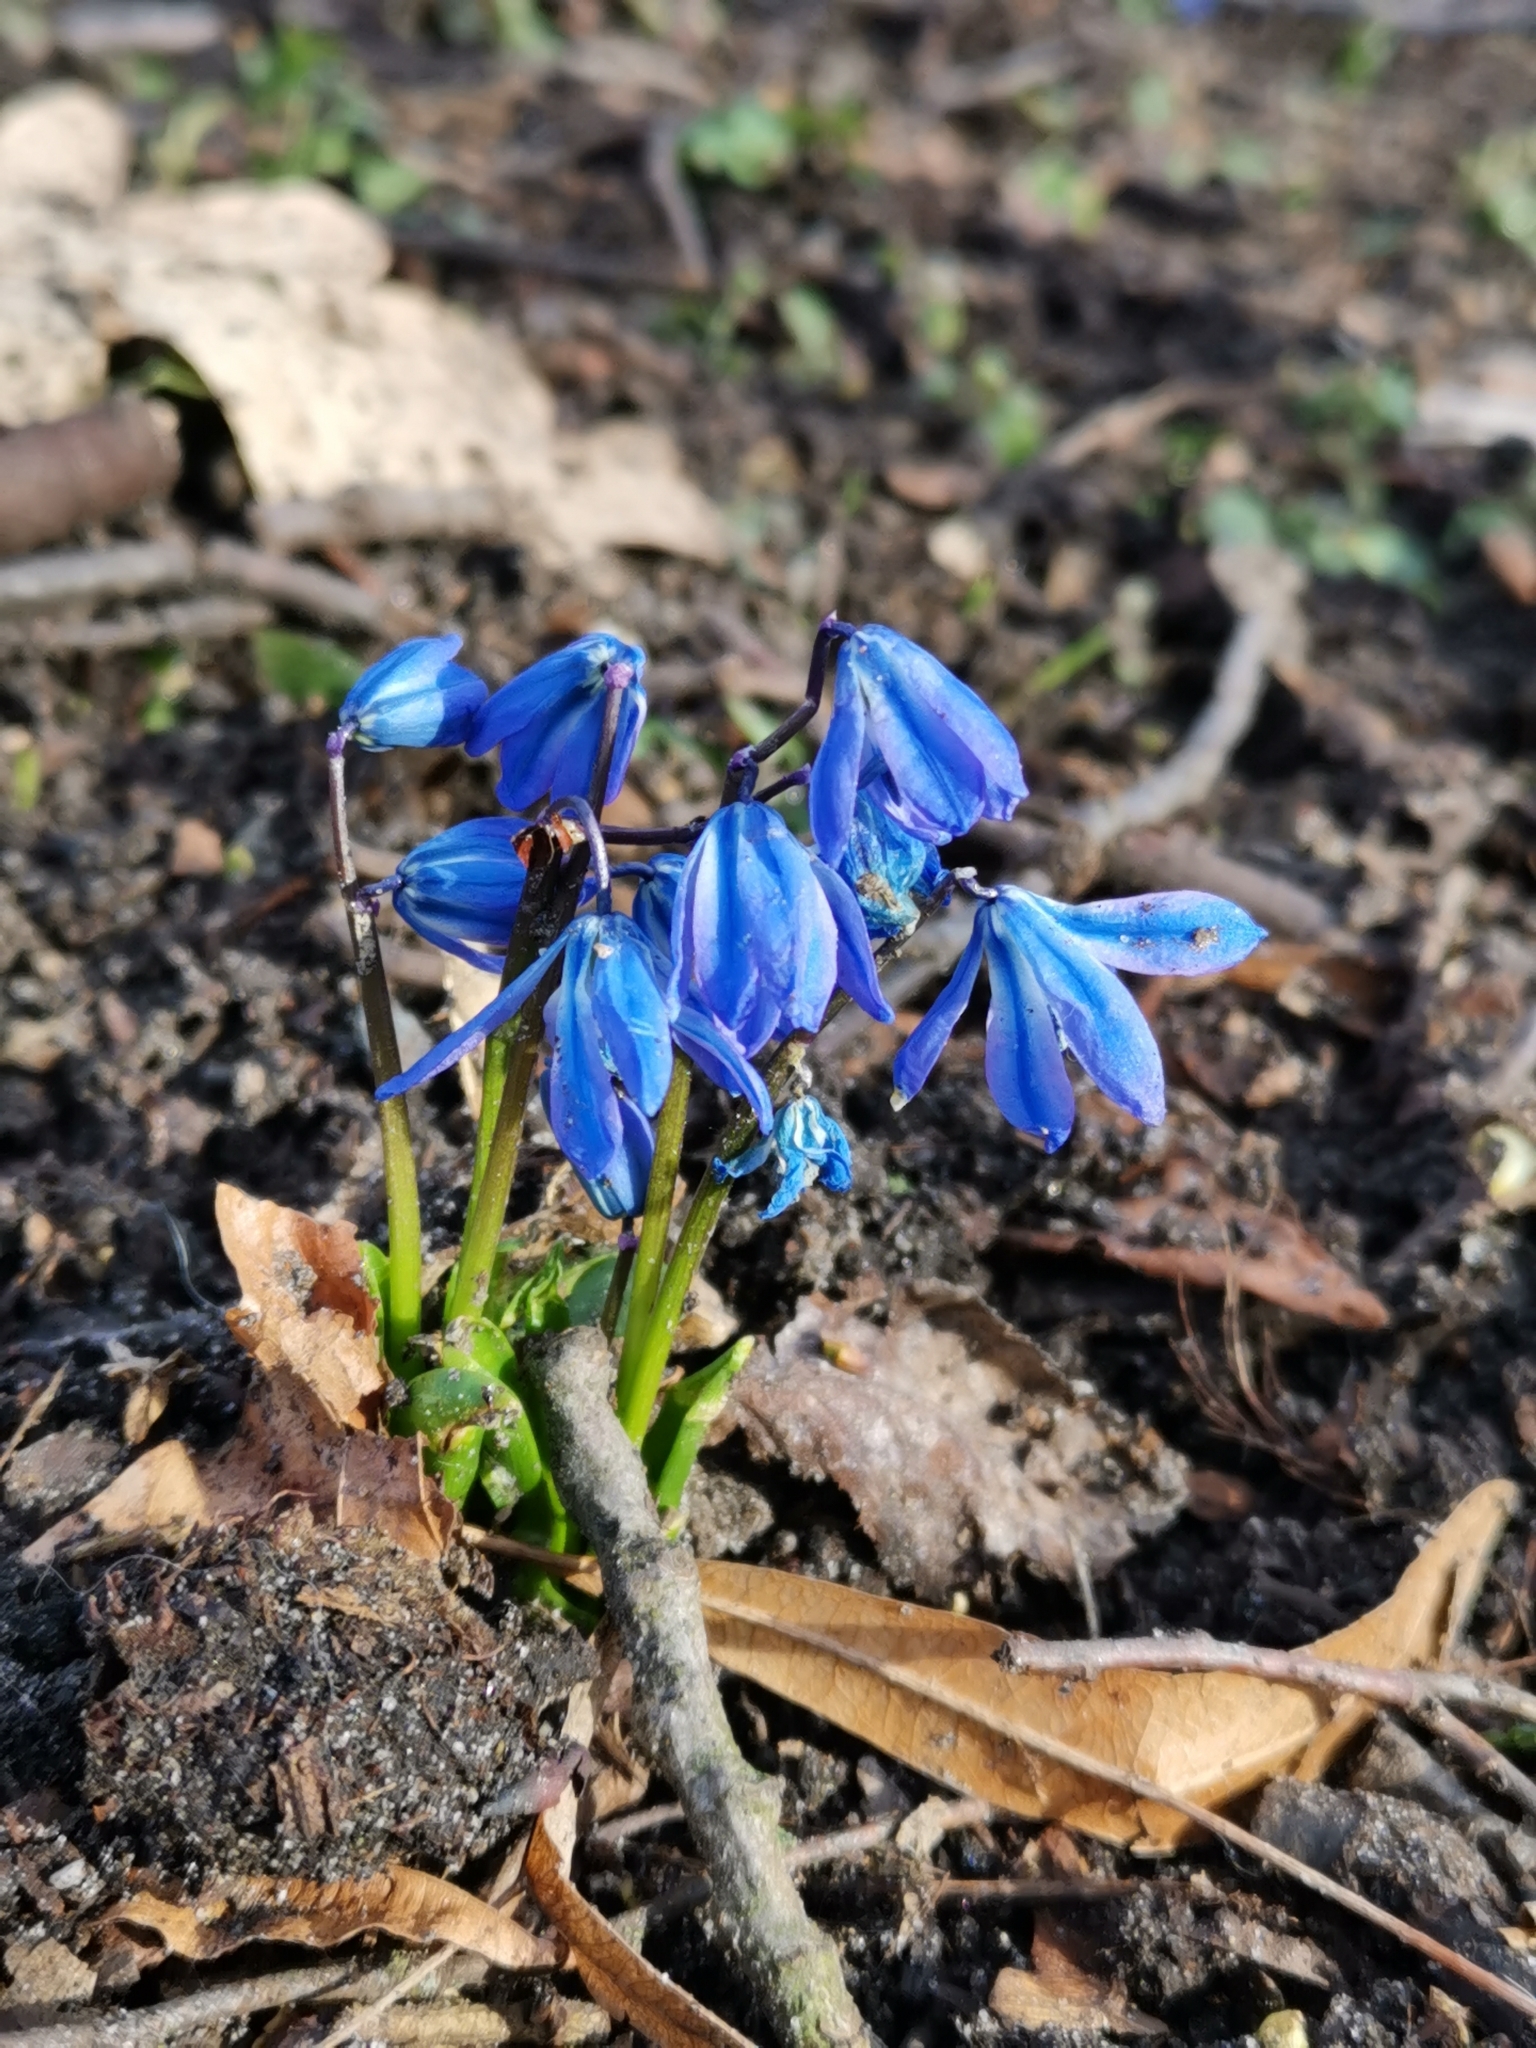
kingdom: Plantae
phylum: Tracheophyta
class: Liliopsida
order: Asparagales
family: Asparagaceae
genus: Scilla
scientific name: Scilla siberica
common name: Siberian squill
